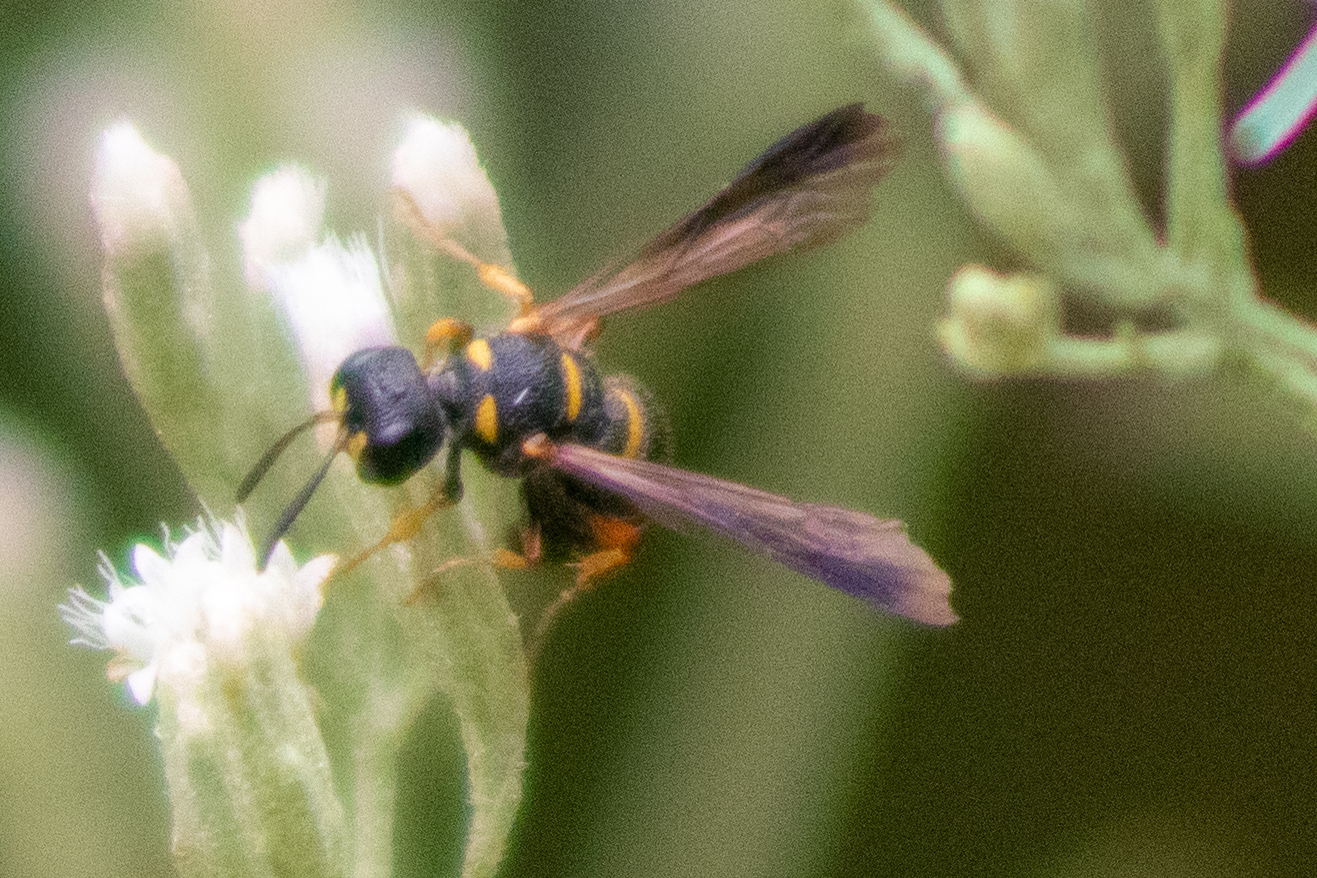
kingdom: Animalia
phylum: Arthropoda
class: Insecta
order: Hymenoptera
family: Crabronidae
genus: Cerceris
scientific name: Cerceris insolita
